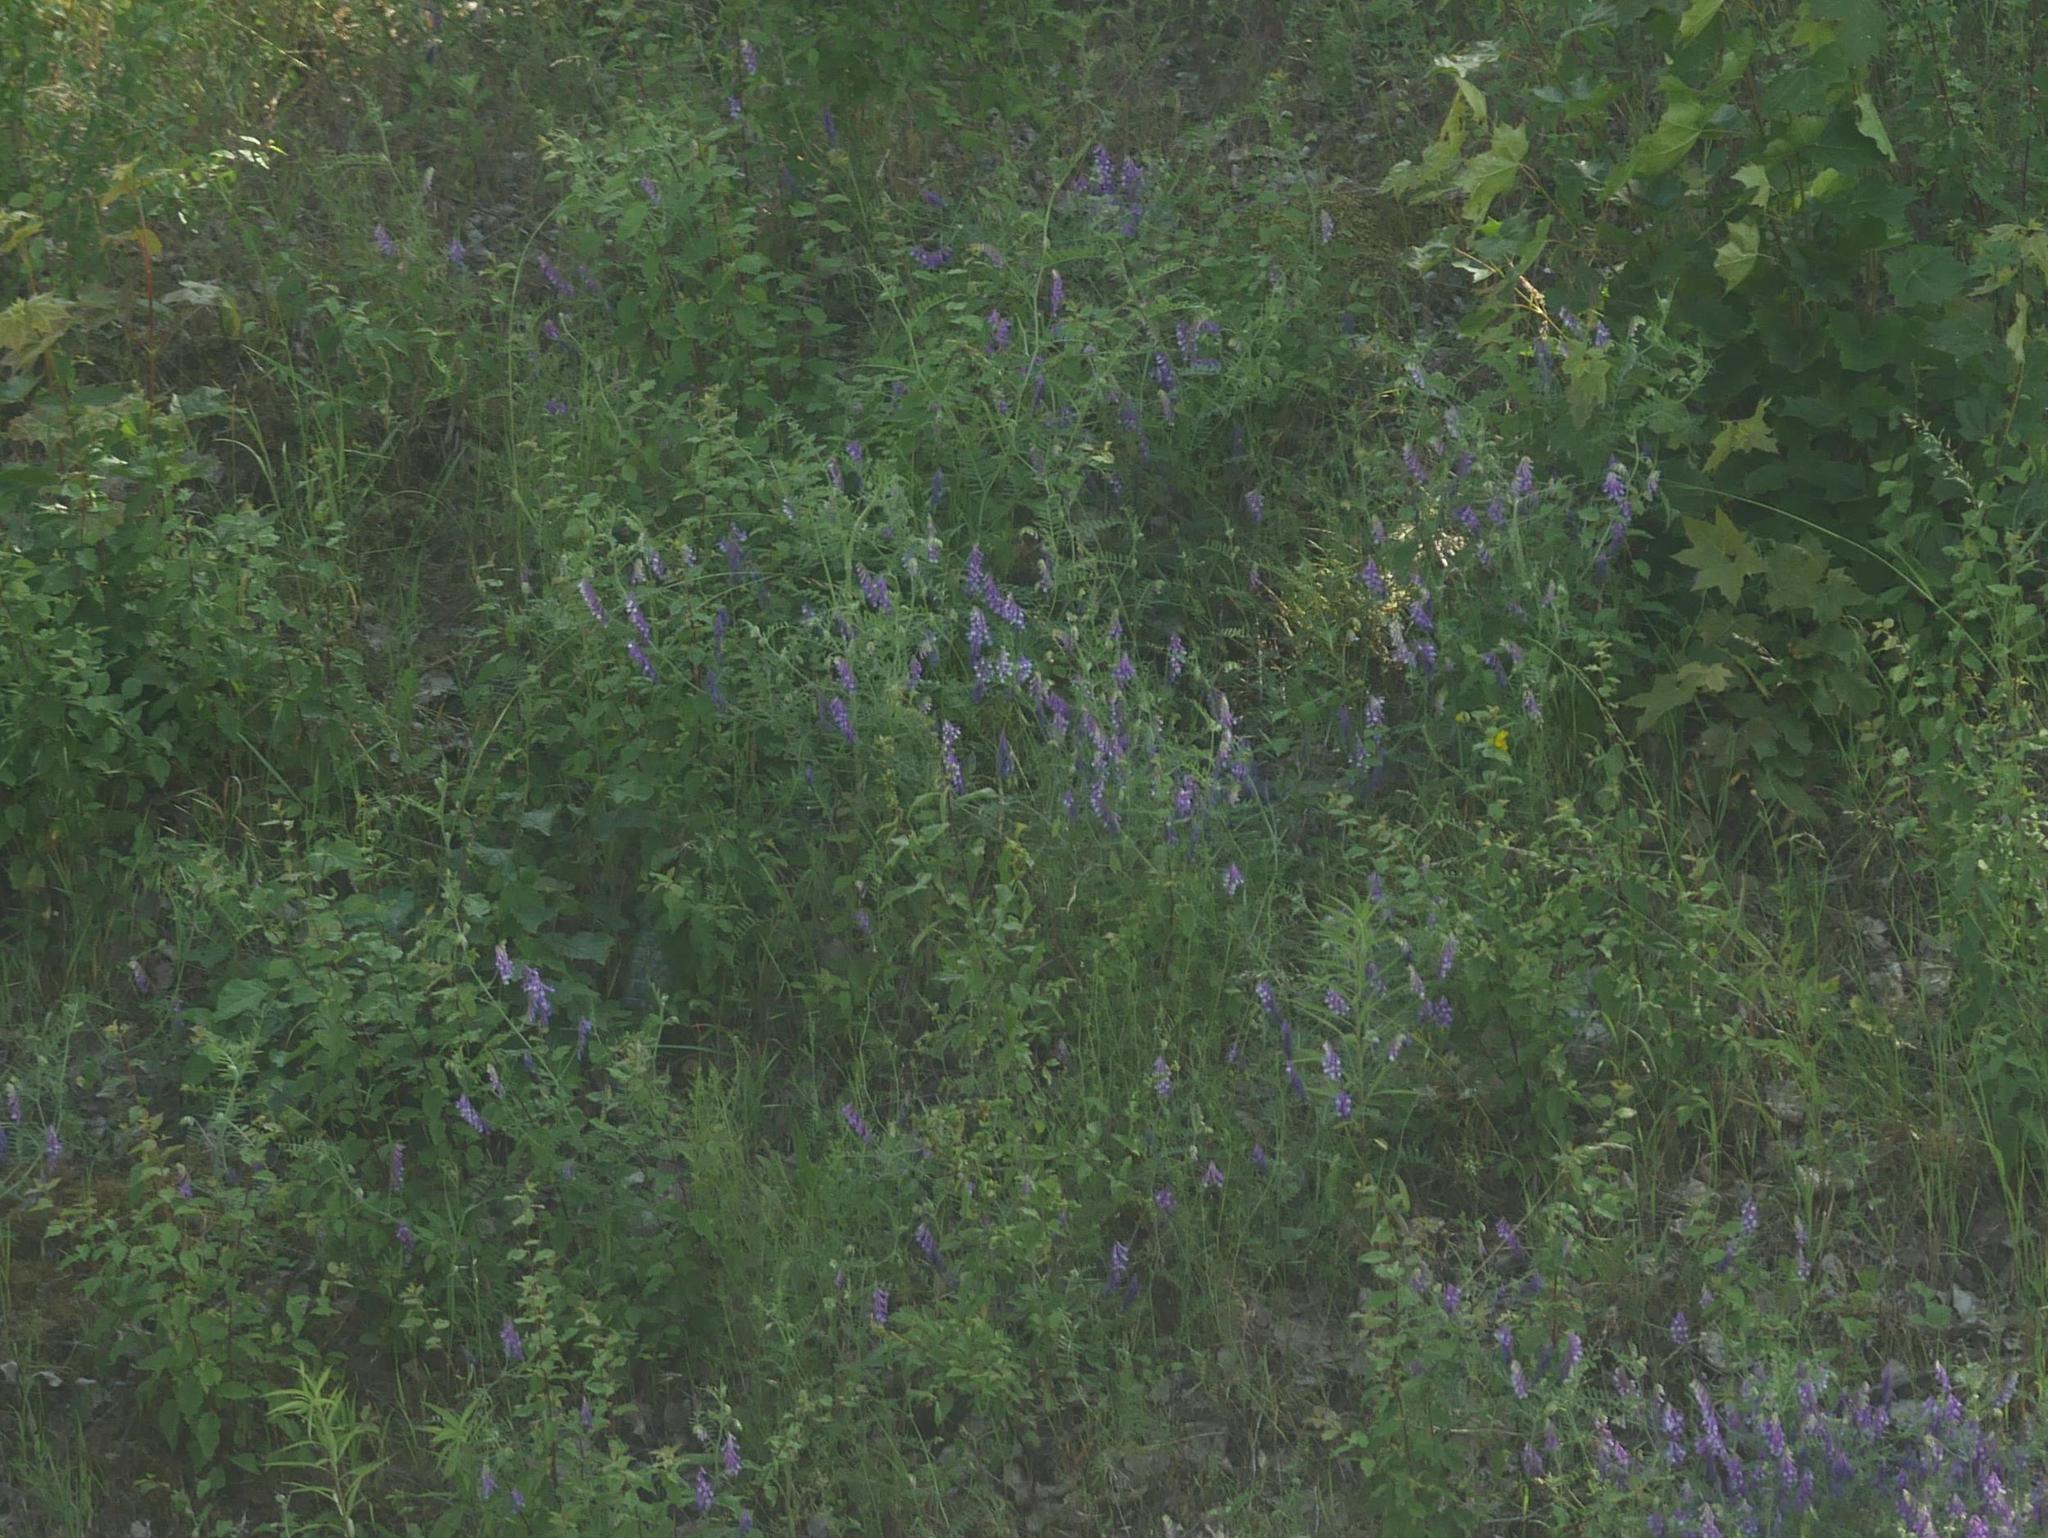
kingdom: Plantae
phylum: Tracheophyta
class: Magnoliopsida
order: Sapindales
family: Sapindaceae
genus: Acer
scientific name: Acer platanoides
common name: Norway maple
